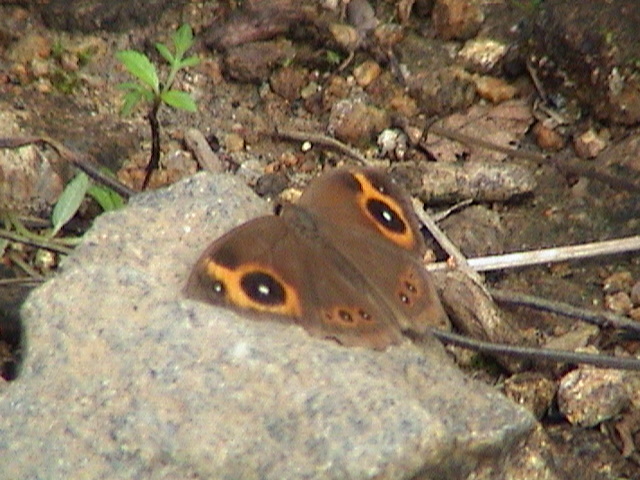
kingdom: Animalia
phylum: Arthropoda
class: Insecta
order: Lepidoptera
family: Nymphalidae
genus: Mycalesis
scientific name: Mycalesis Telinga oculus
